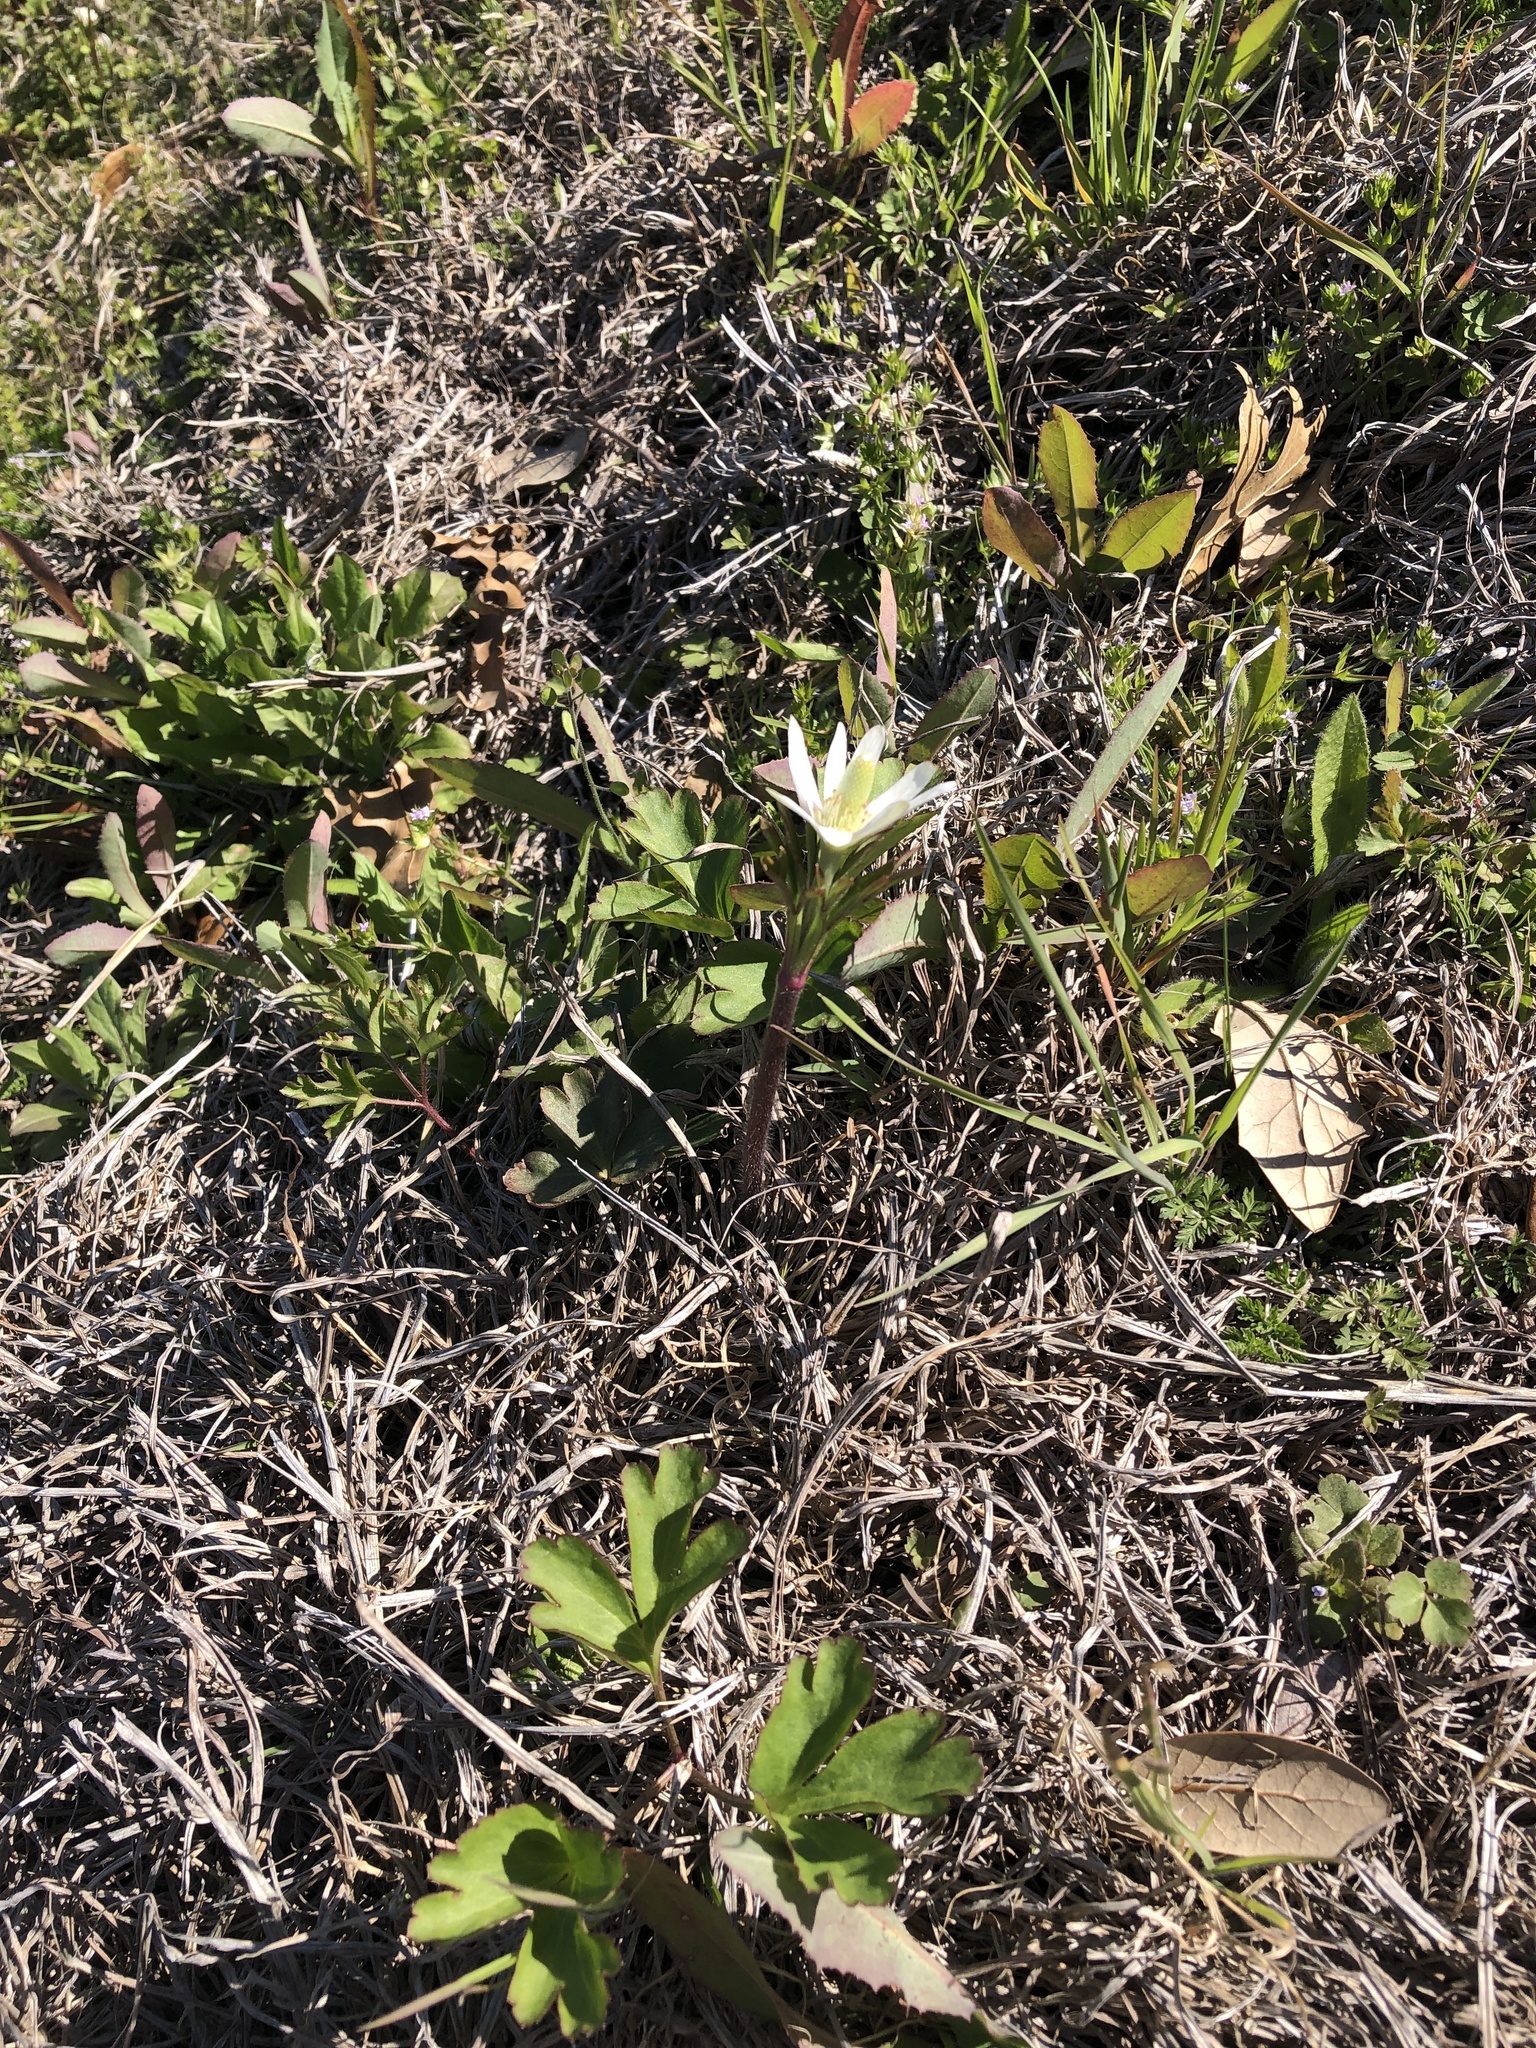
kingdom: Plantae
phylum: Tracheophyta
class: Magnoliopsida
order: Ranunculales
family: Ranunculaceae
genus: Anemone
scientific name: Anemone berlandieri
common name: Ten-petal anemone
